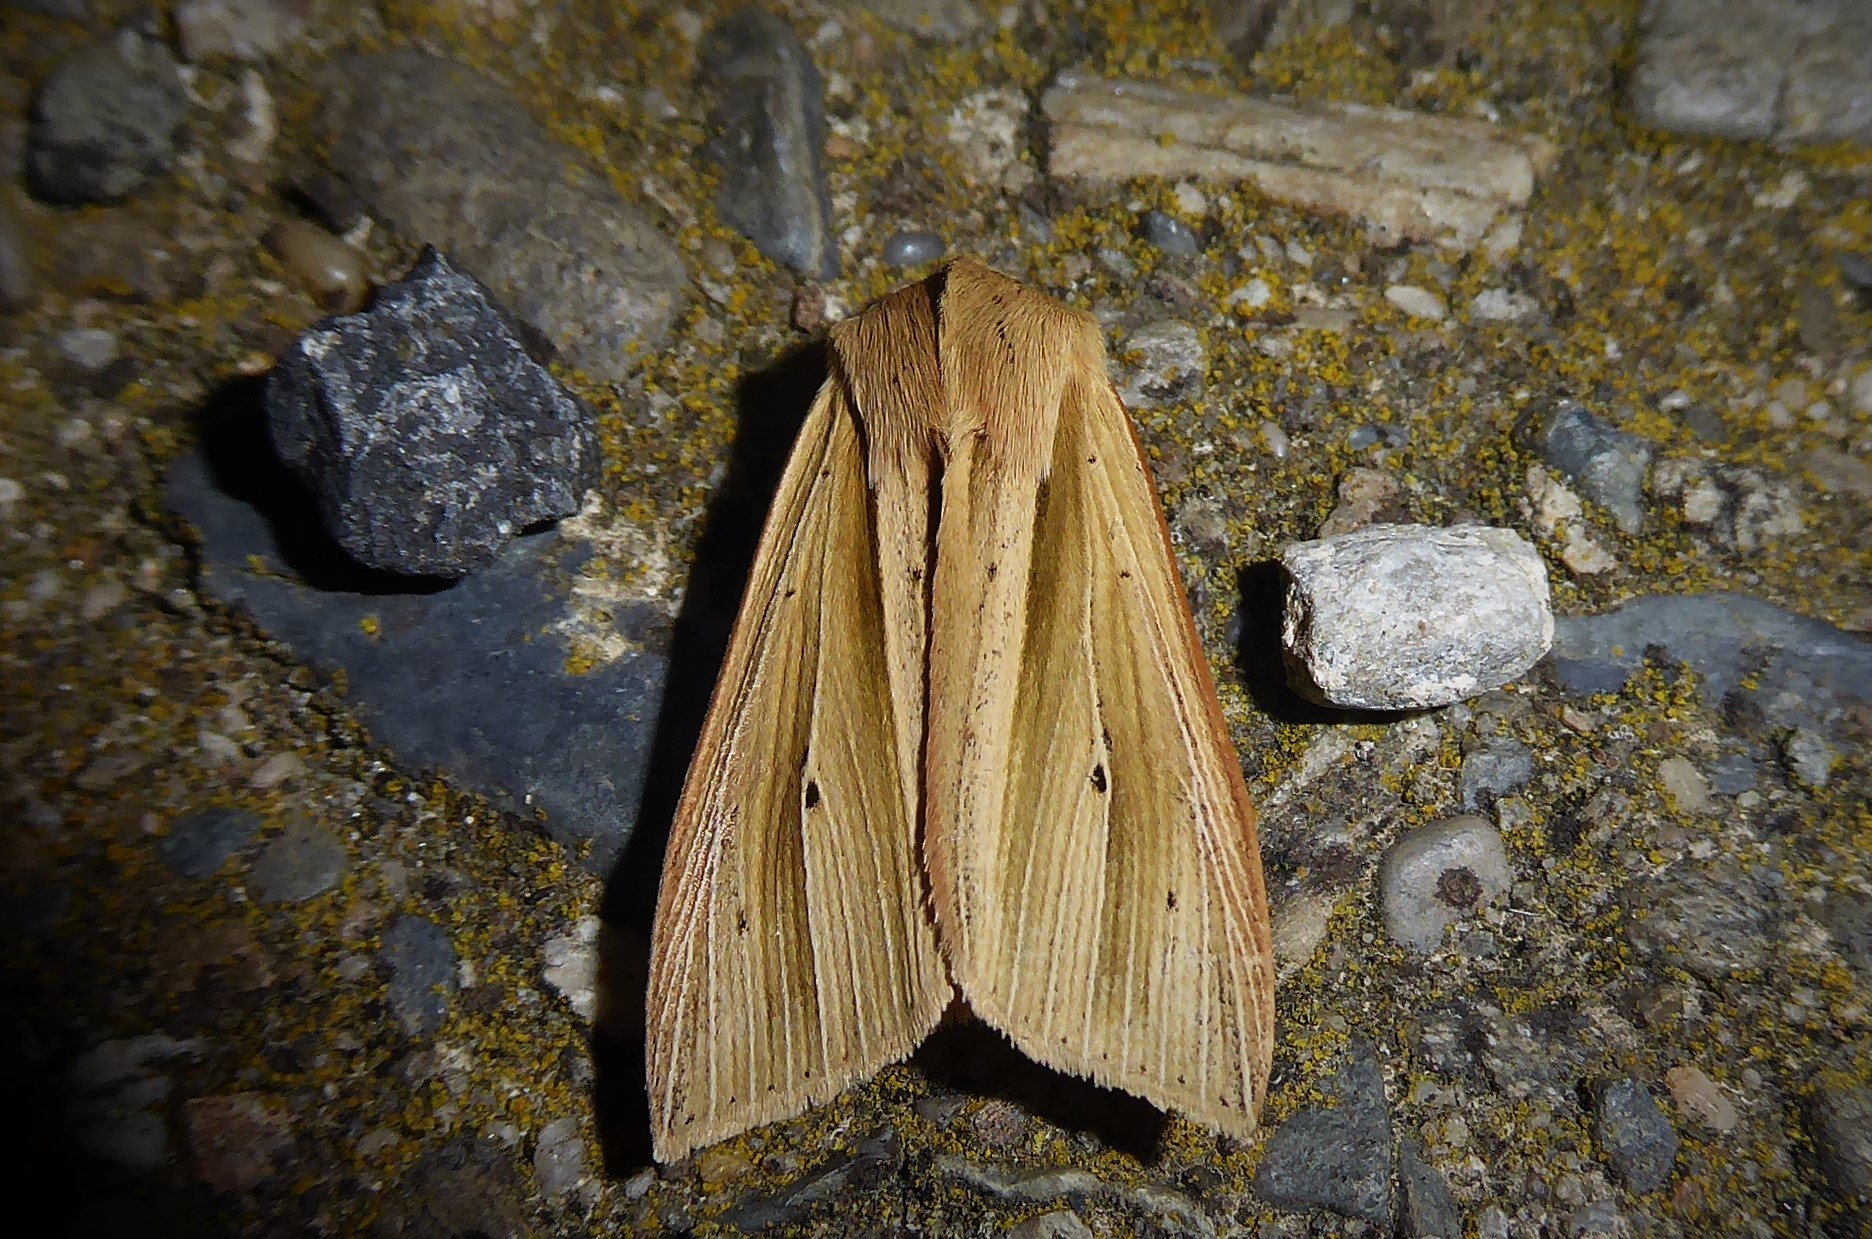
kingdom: Animalia
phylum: Arthropoda
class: Insecta
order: Lepidoptera
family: Noctuidae
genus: Ichneutica
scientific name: Ichneutica sulcana
